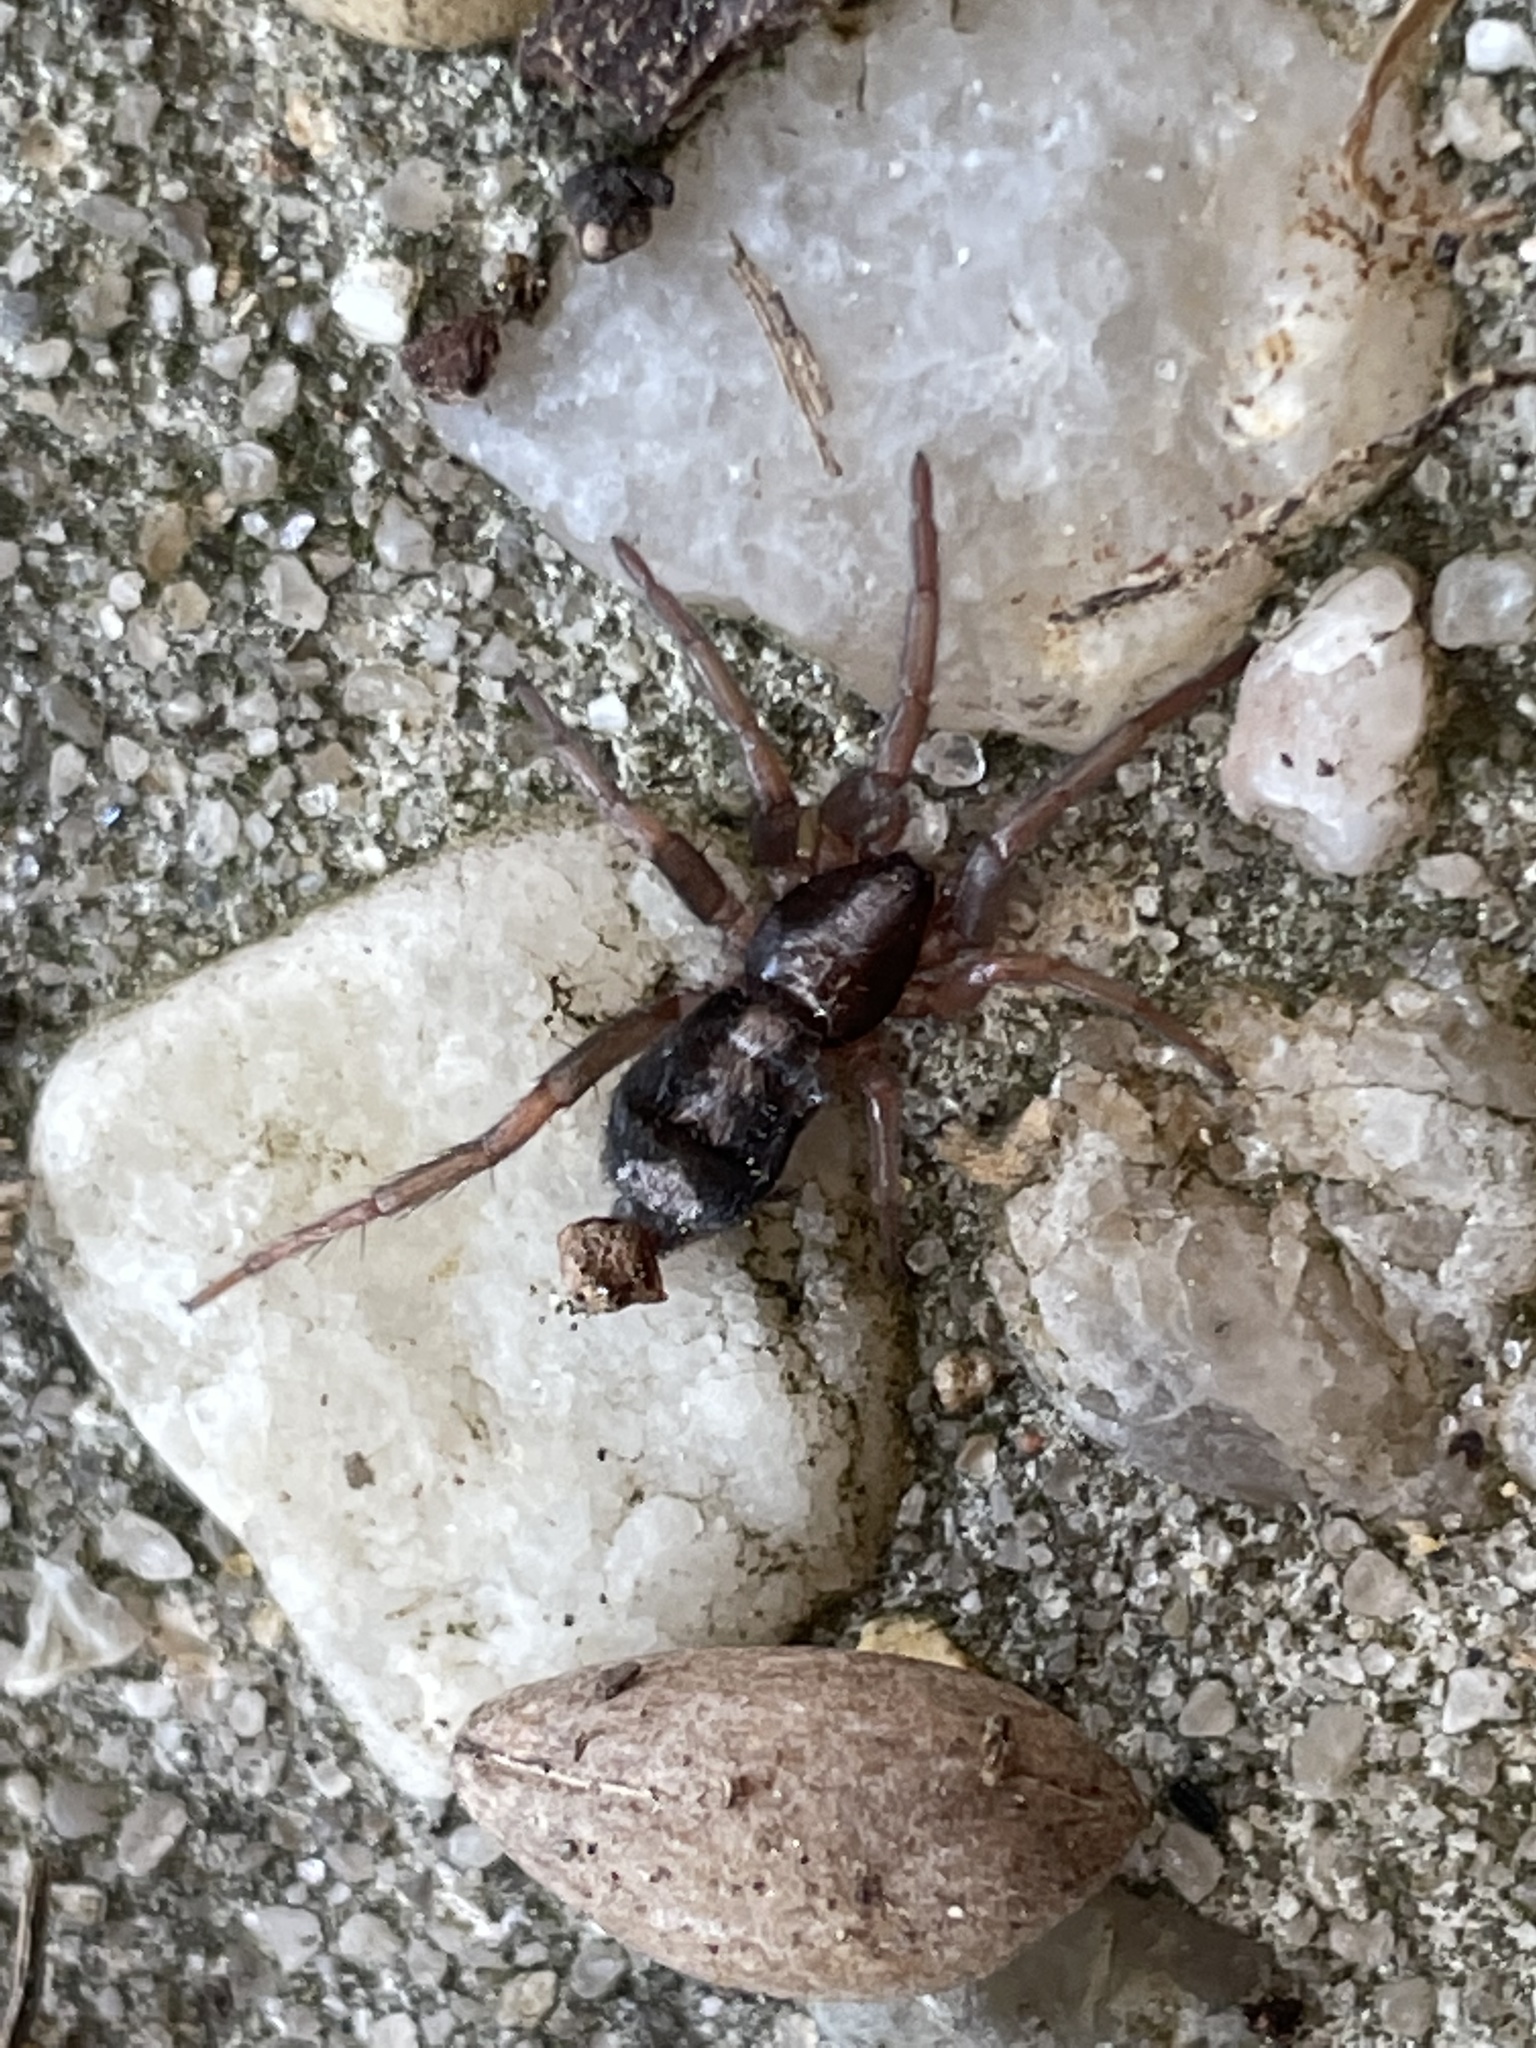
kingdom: Animalia
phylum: Arthropoda
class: Arachnida
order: Araneae
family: Gnaphosidae
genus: Herpyllus
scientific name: Herpyllus ecclesiasticus
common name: Eastern parson spider
